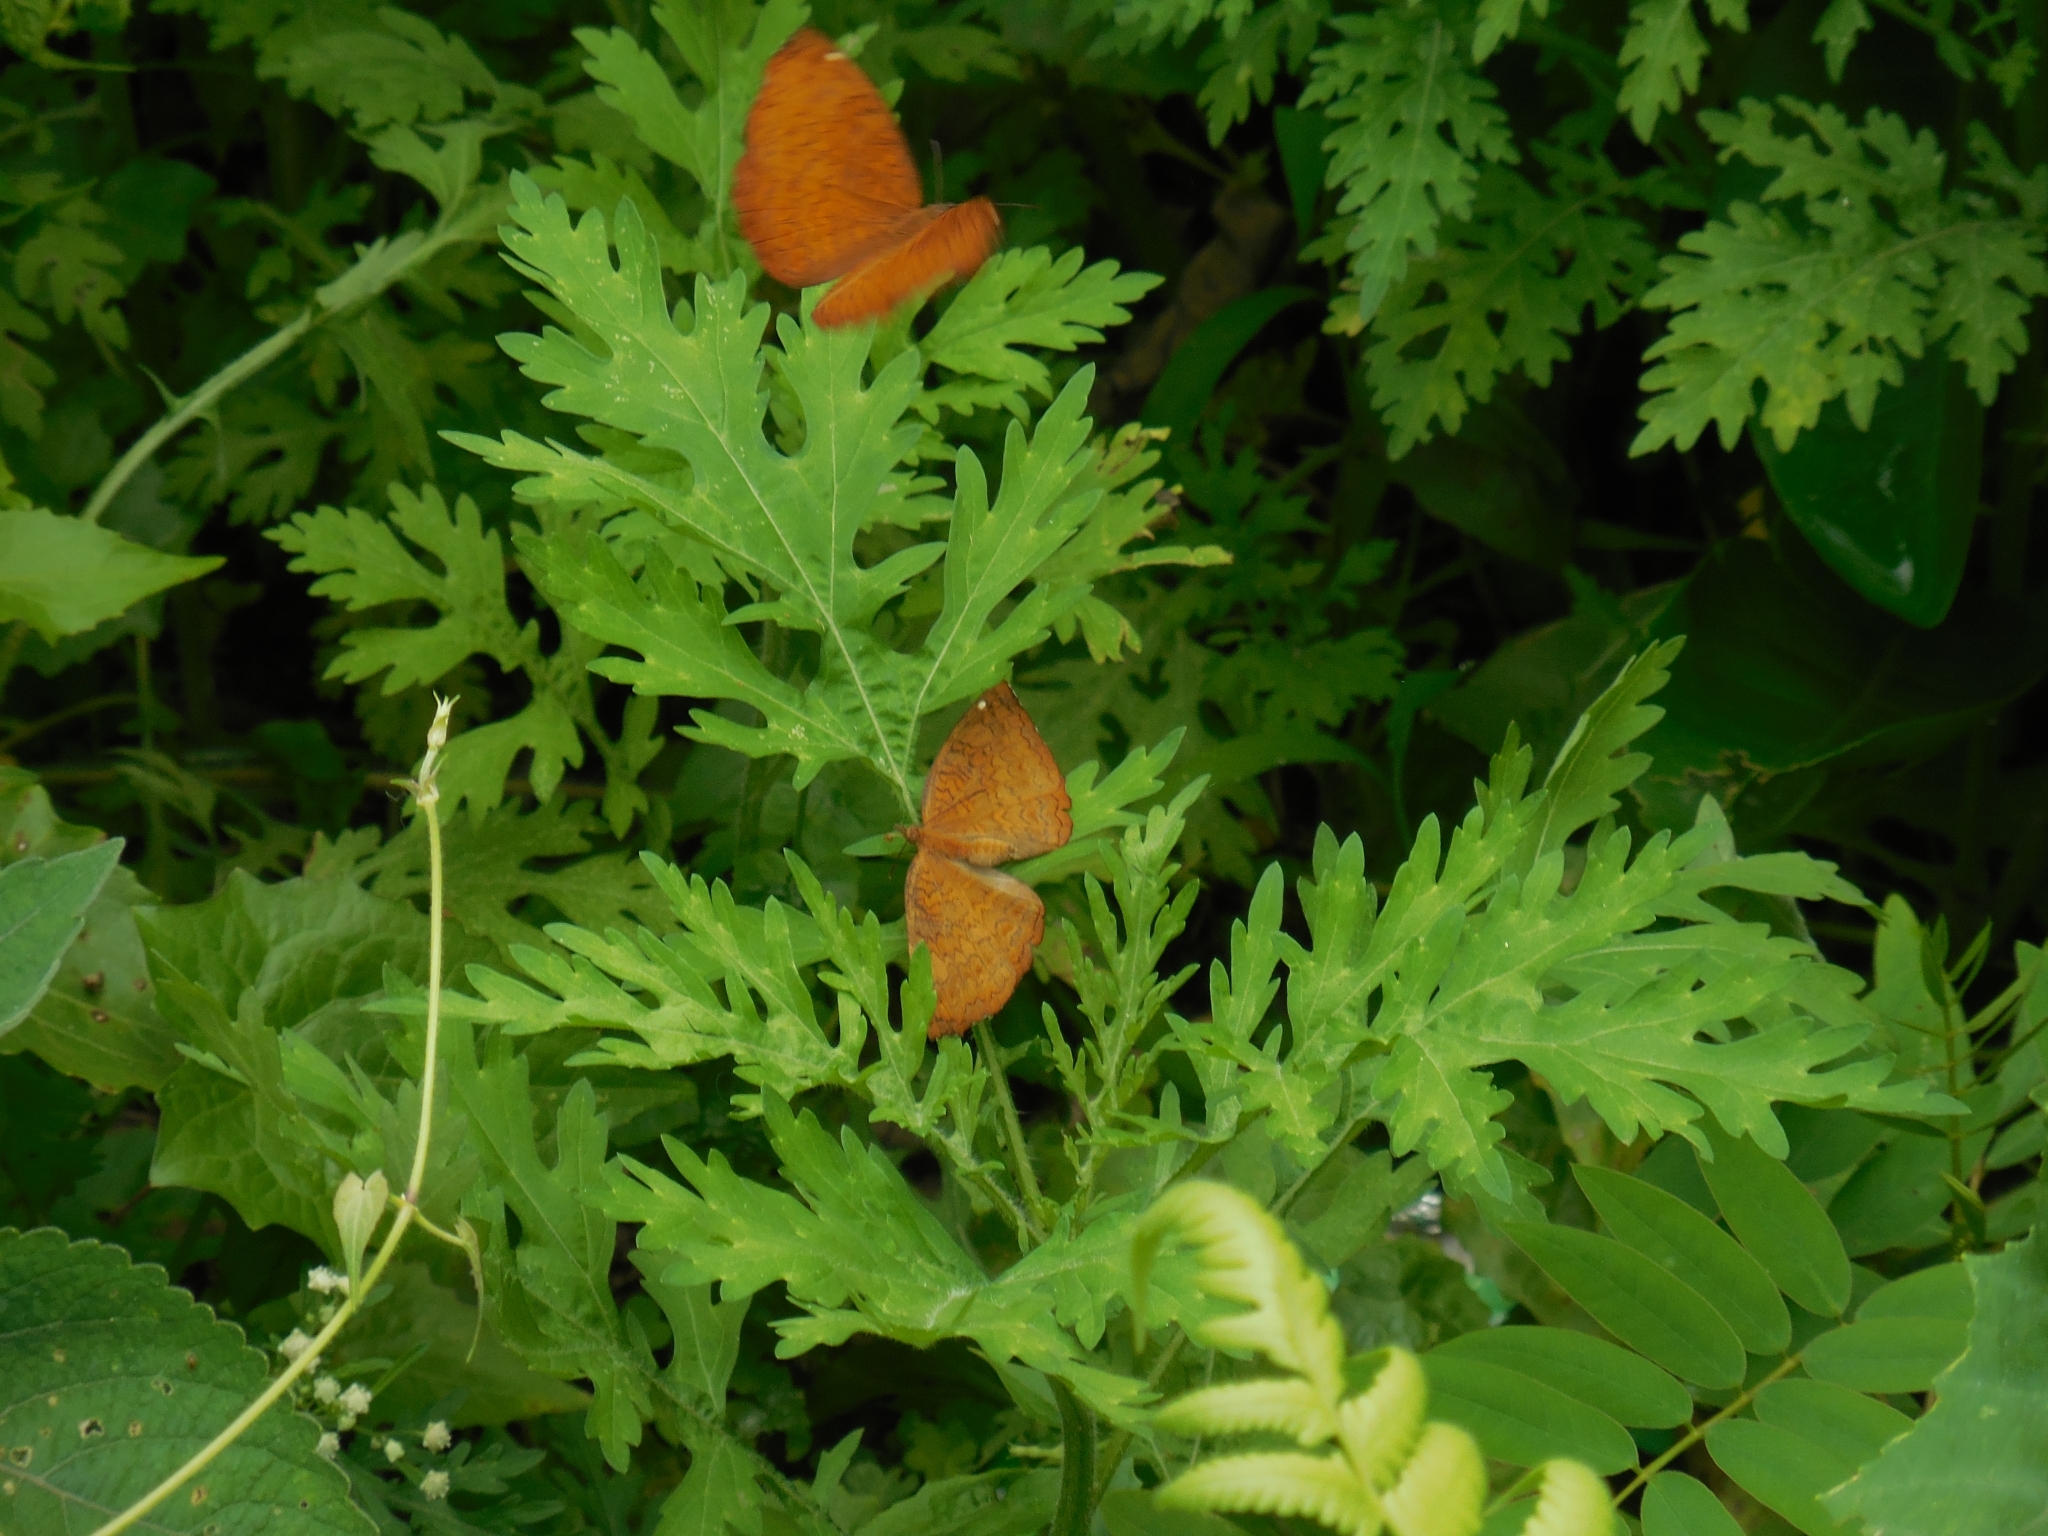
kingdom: Animalia
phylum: Arthropoda
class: Insecta
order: Lepidoptera
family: Nymphalidae
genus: Ariadne
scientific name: Ariadne merione
